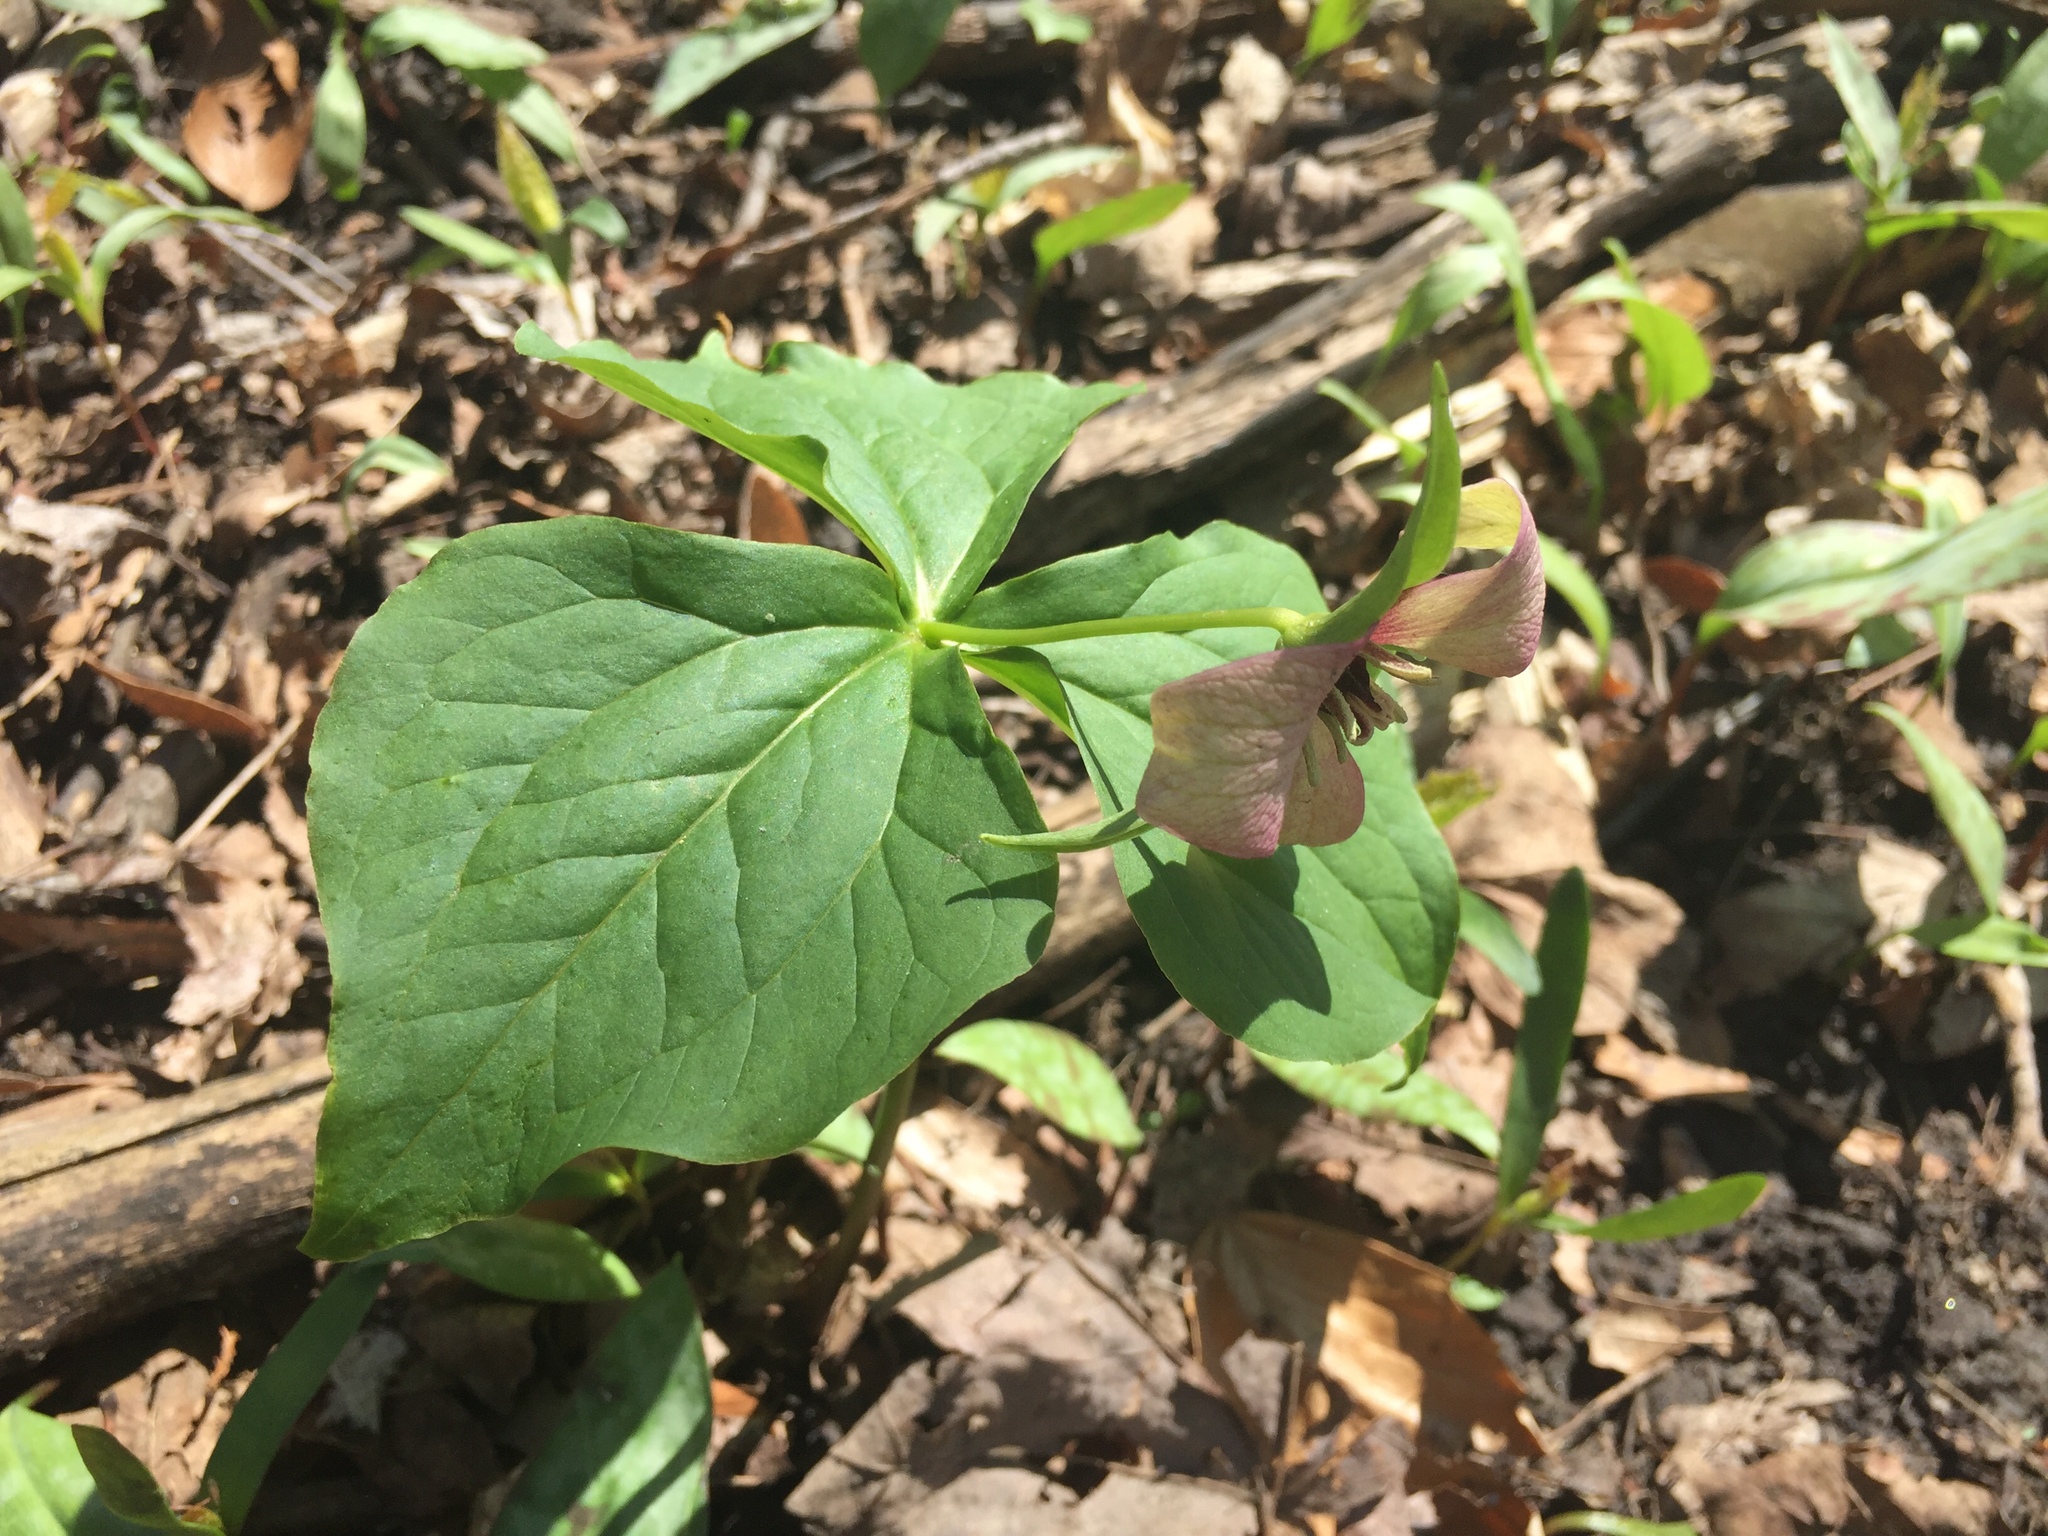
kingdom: Plantae
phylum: Tracheophyta
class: Liliopsida
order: Liliales
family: Melanthiaceae
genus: Trillium
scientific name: Trillium erectum
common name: Purple trillium
